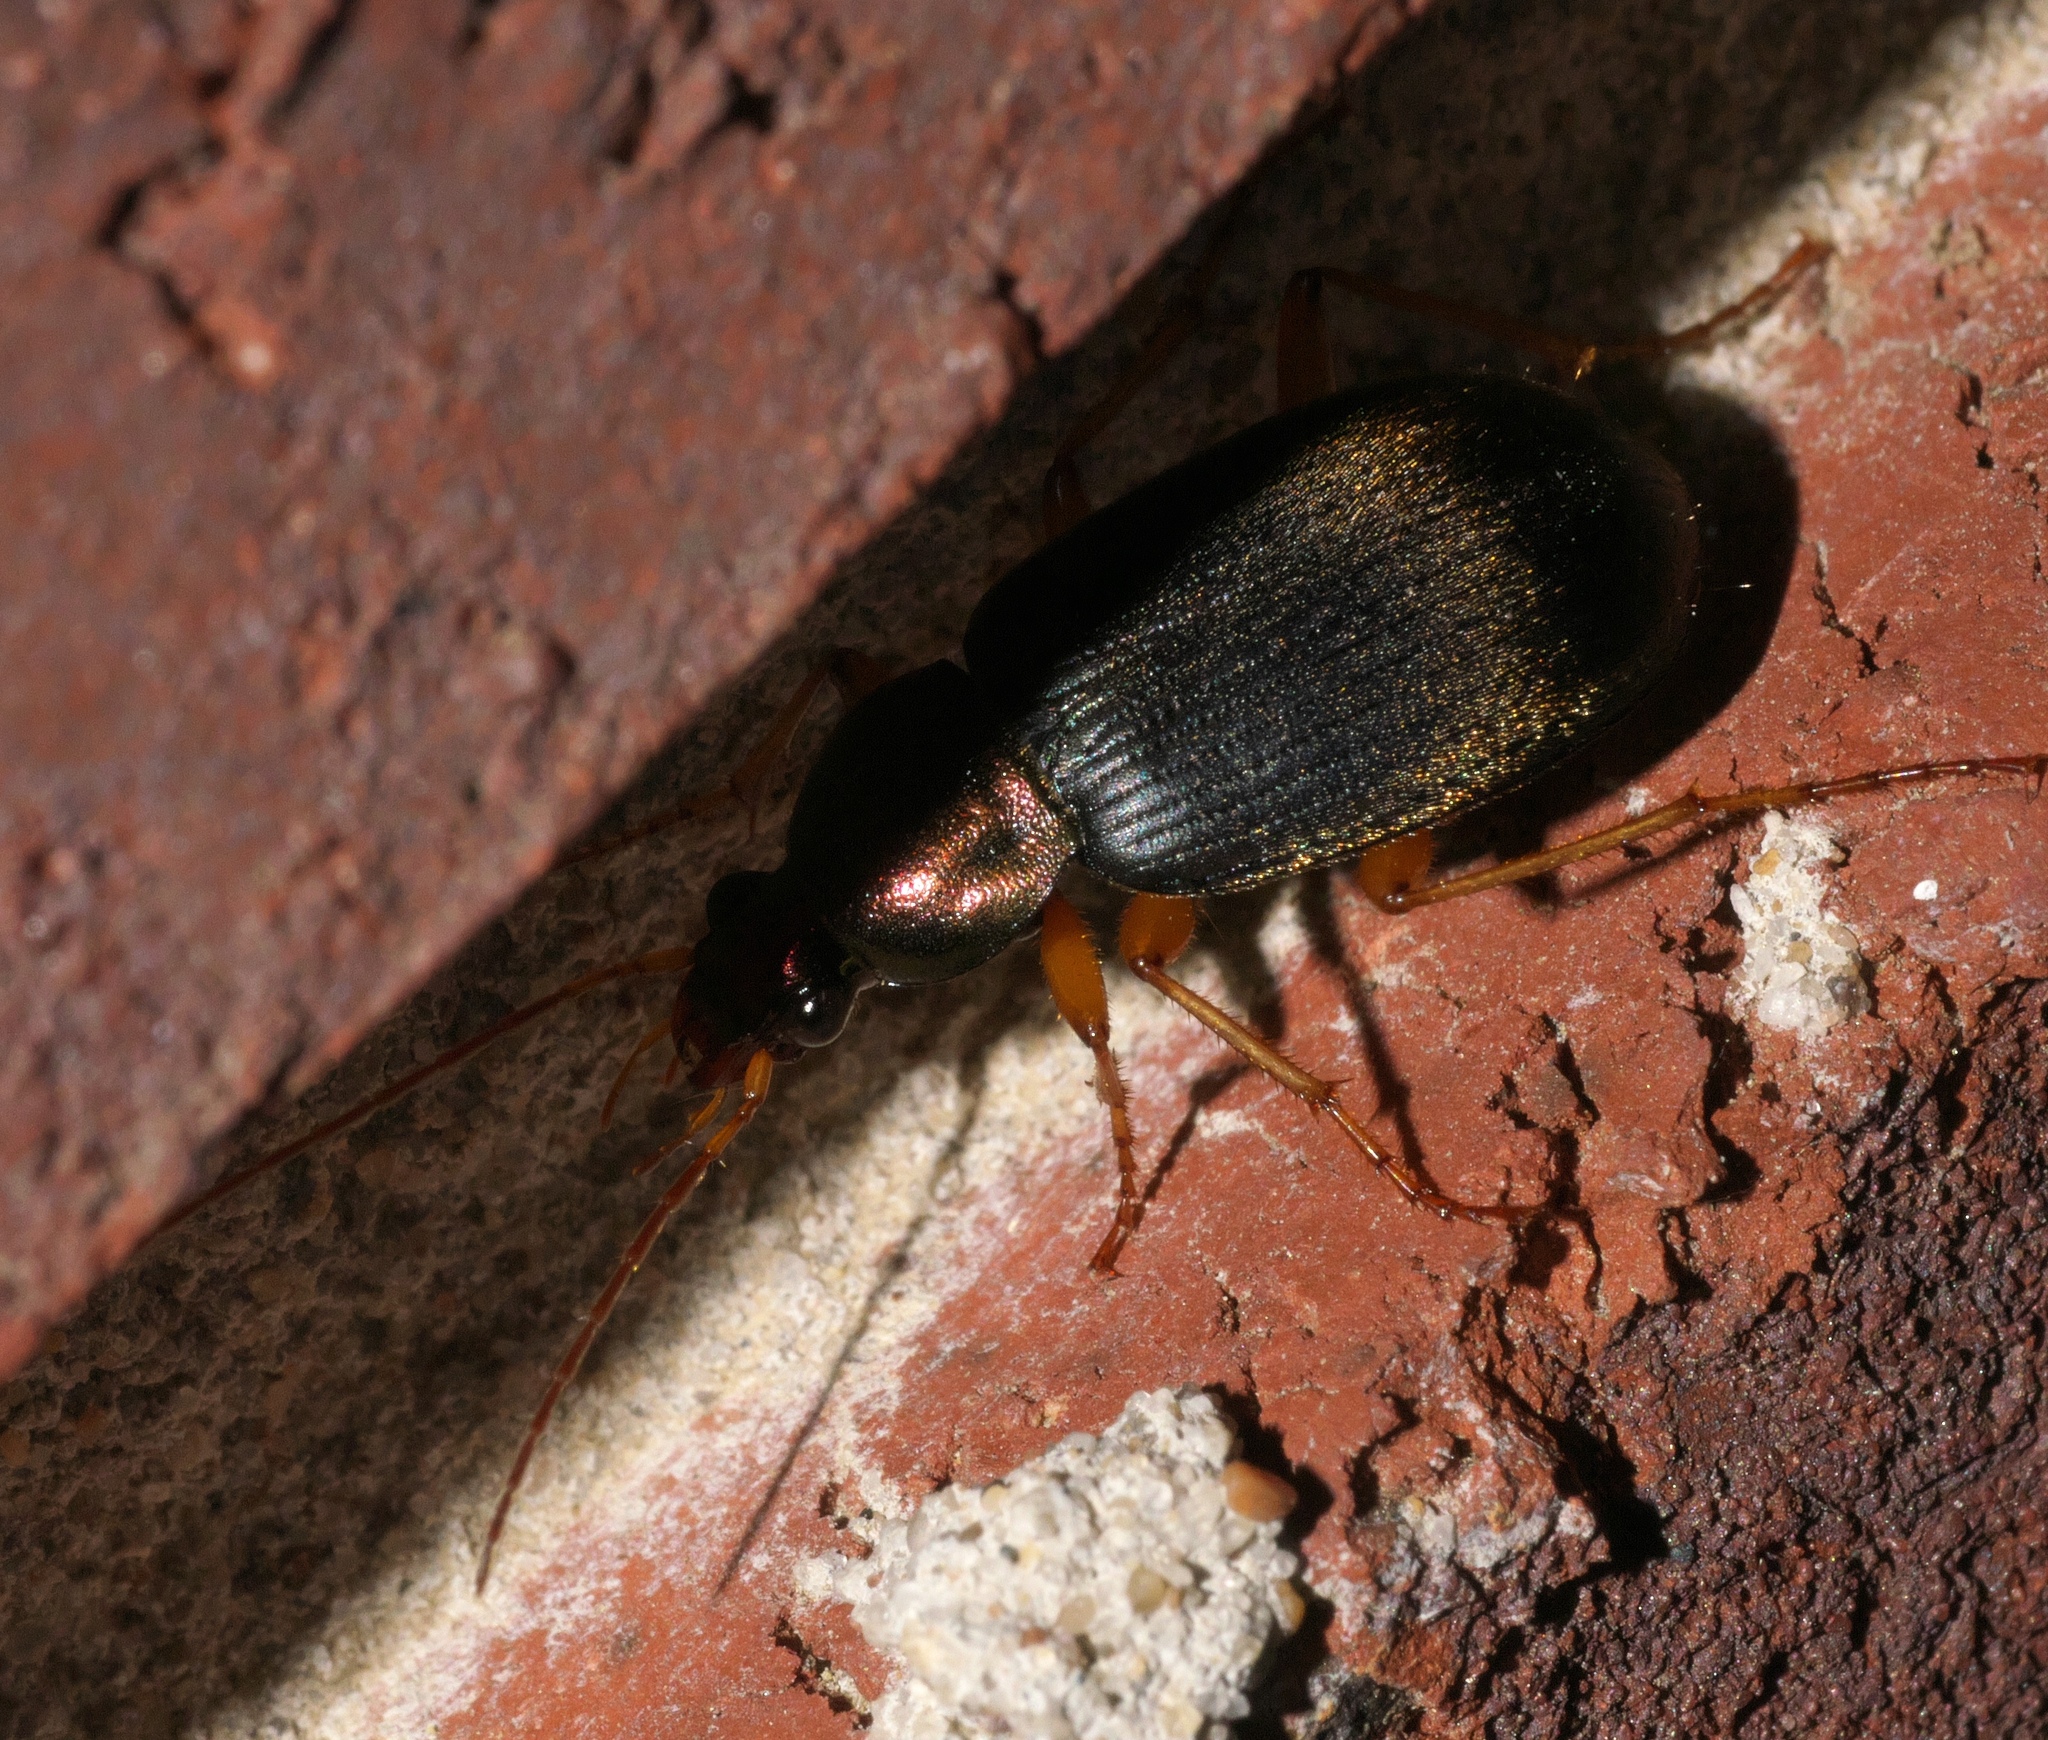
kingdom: Animalia
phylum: Arthropoda
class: Insecta
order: Coleoptera
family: Carabidae
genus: Chlaenius
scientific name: Chlaenius tricolor
